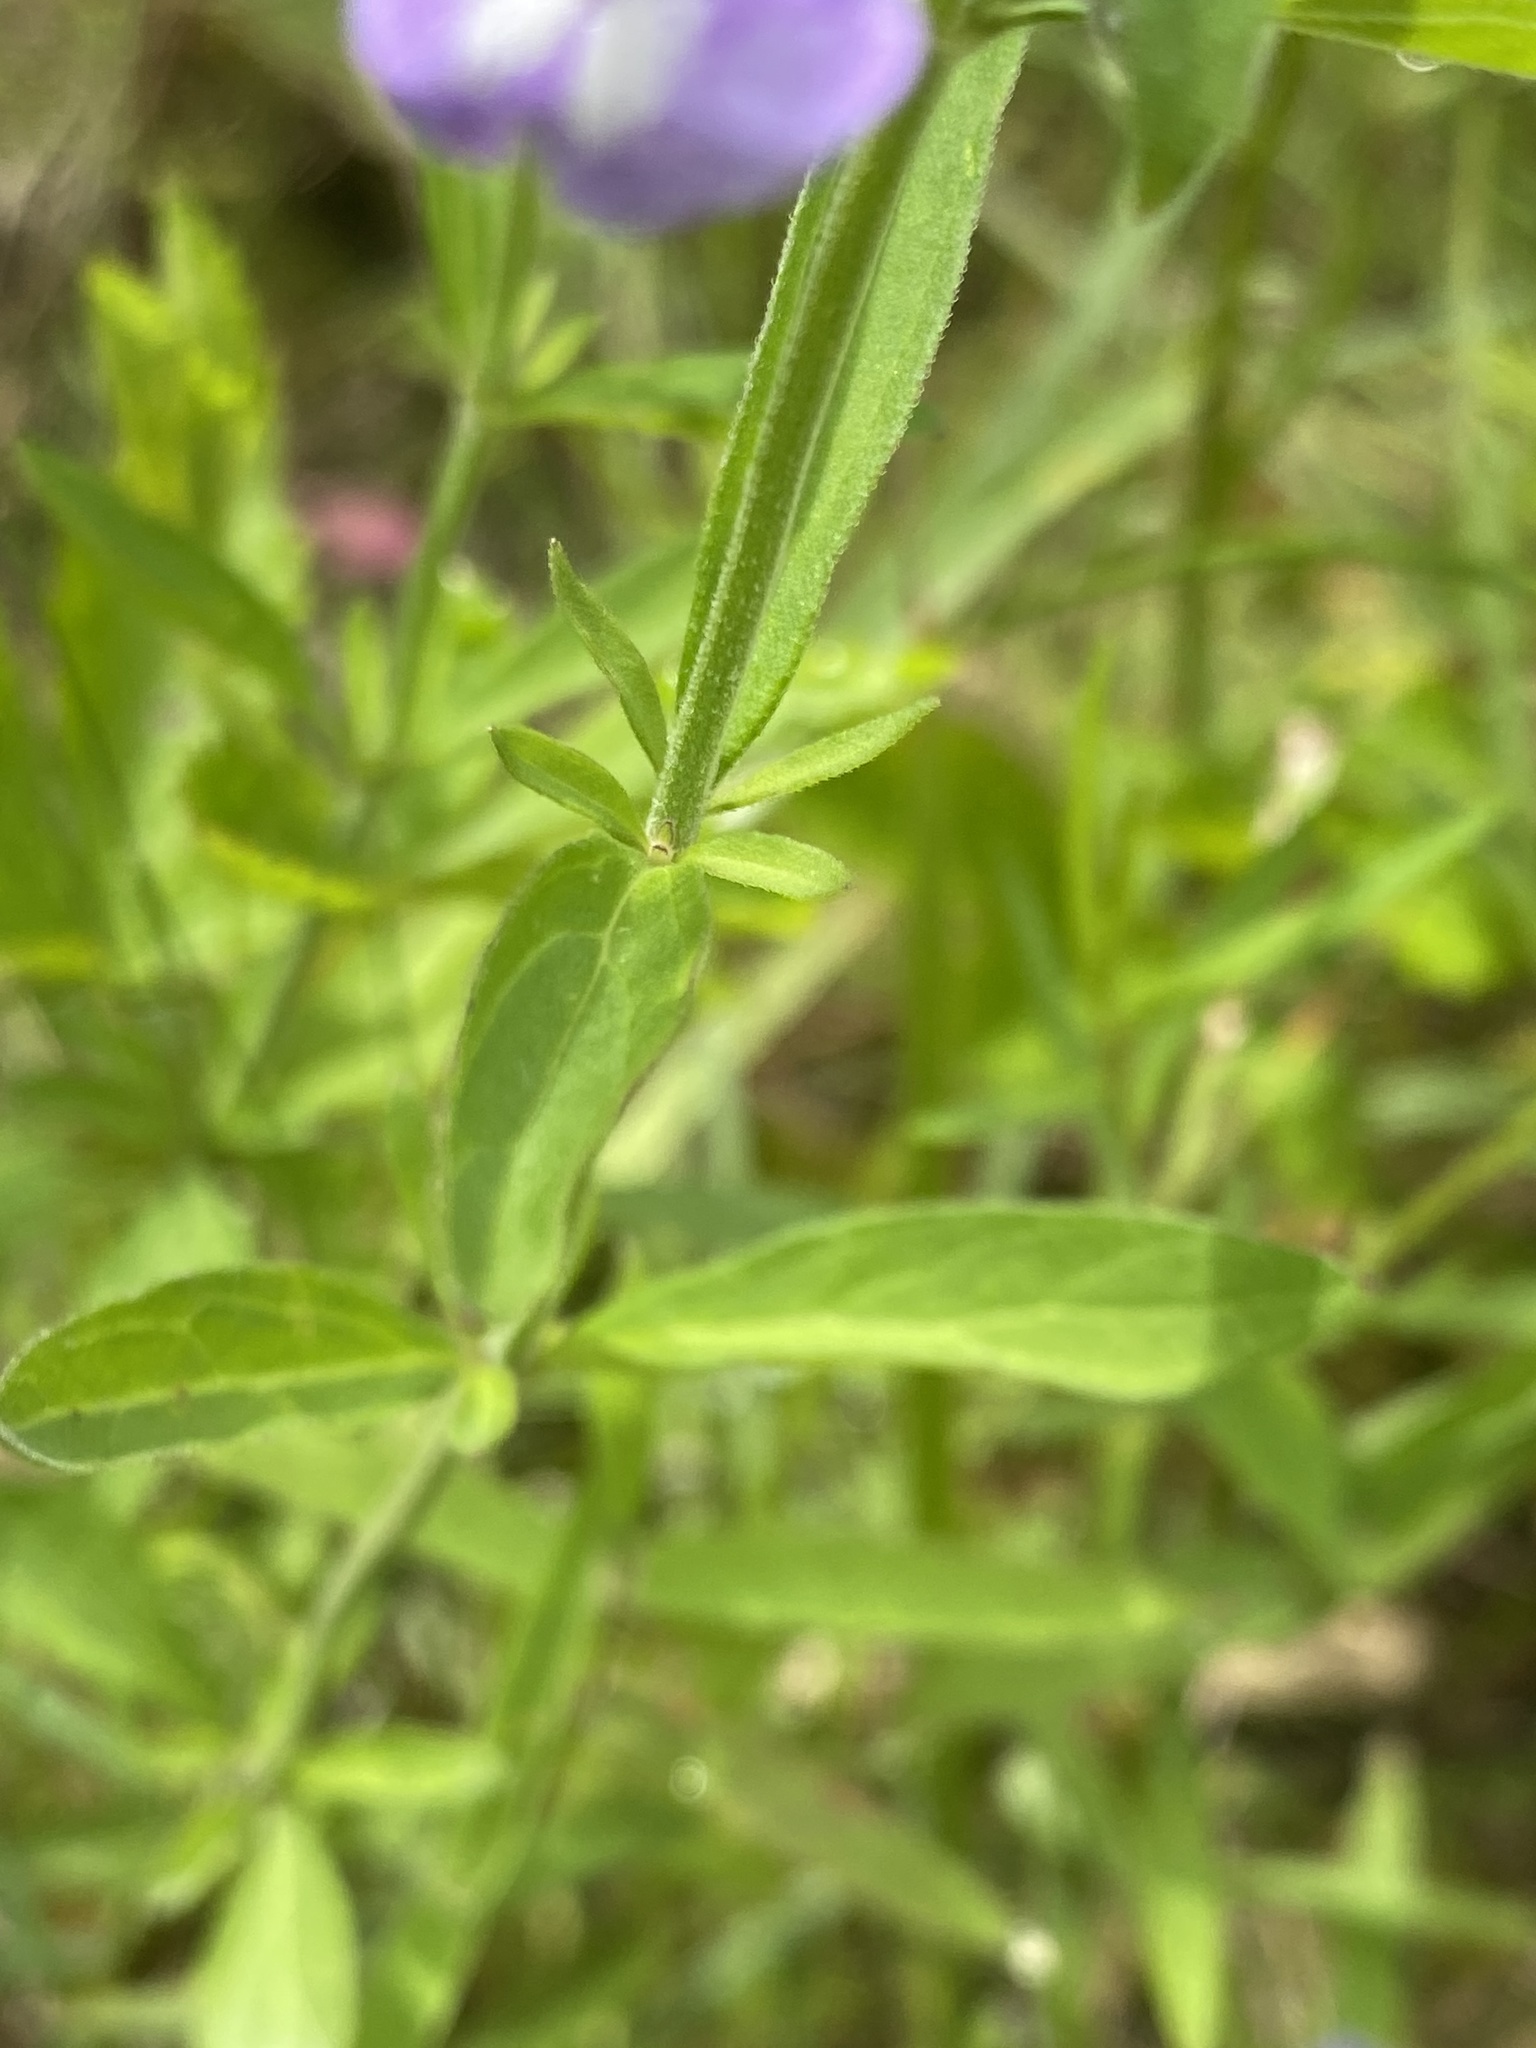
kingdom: Plantae
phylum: Tracheophyta
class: Magnoliopsida
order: Lamiales
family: Lamiaceae
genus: Scutellaria
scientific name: Scutellaria integrifolia
